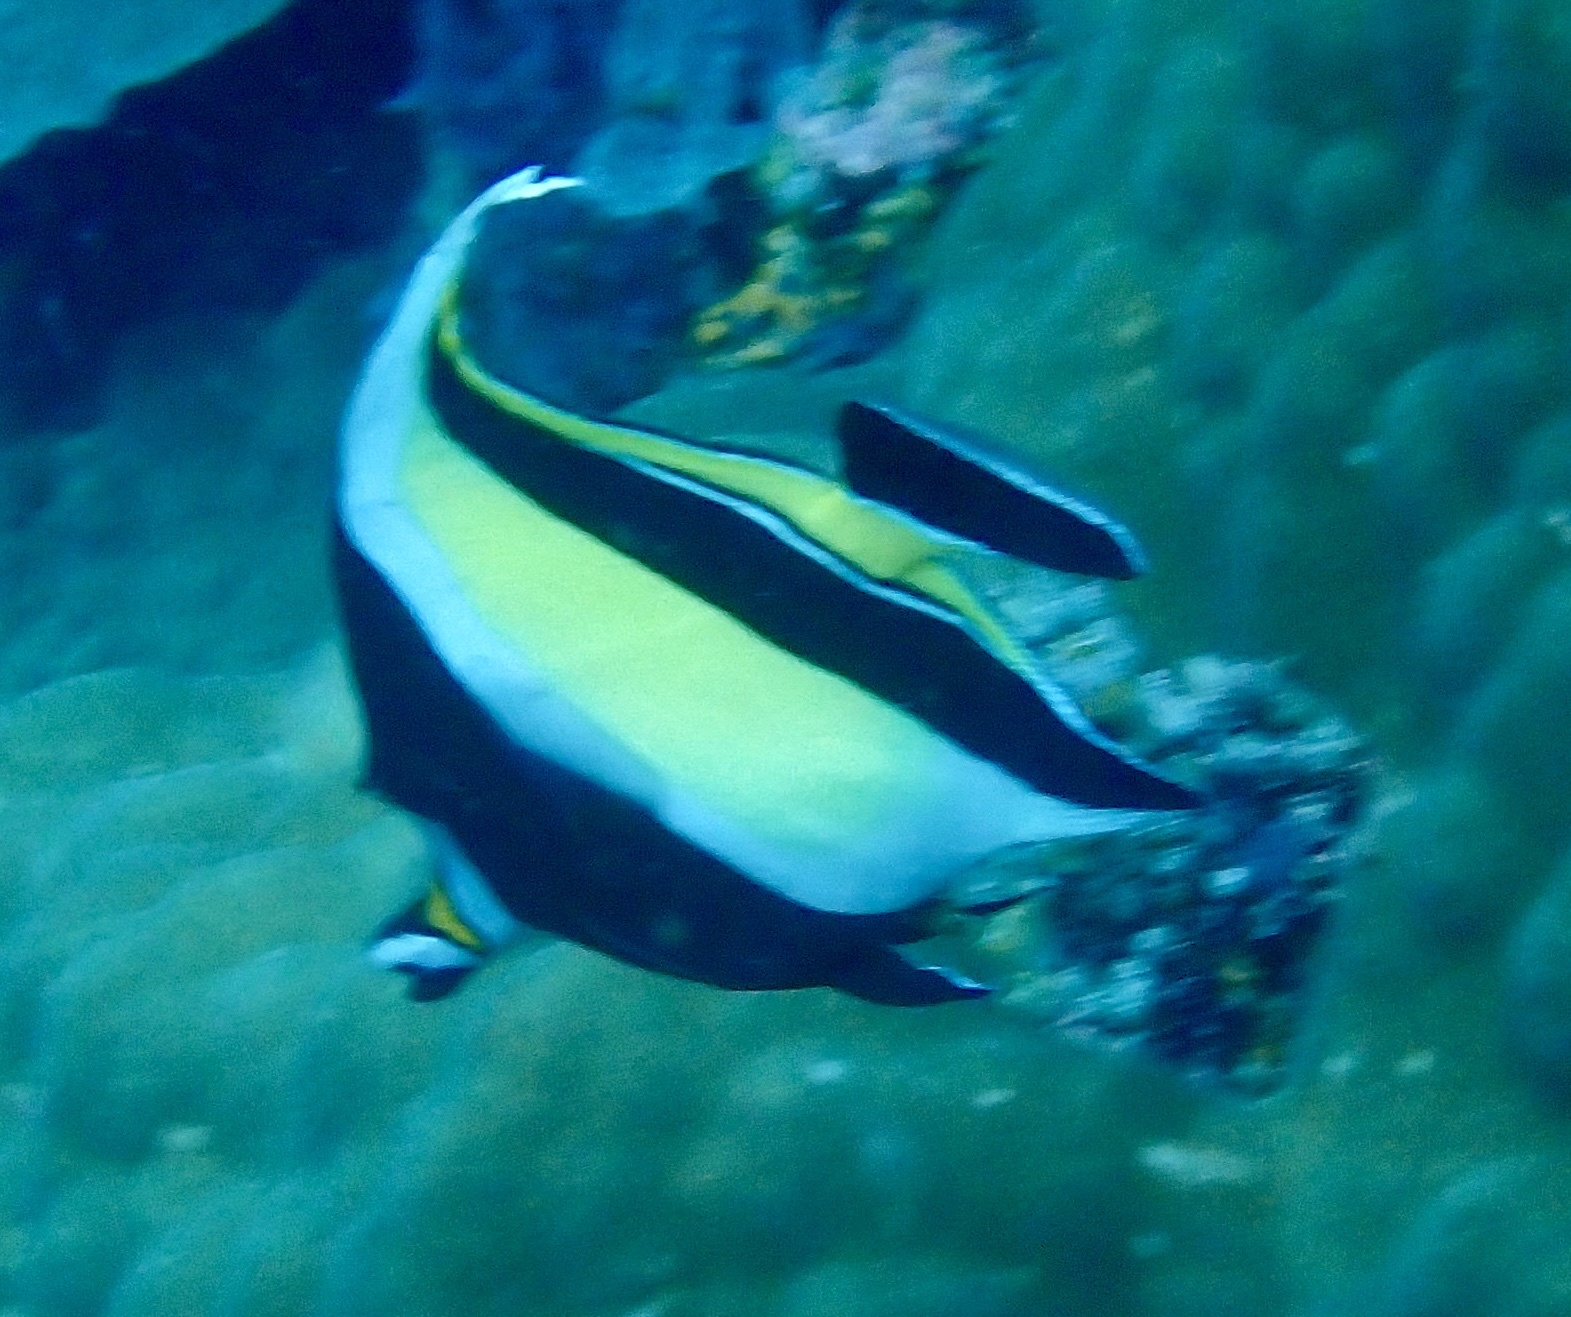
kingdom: Animalia
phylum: Chordata
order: Perciformes
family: Zanclidae
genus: Zanclus
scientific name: Zanclus cornutus
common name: Moorish idol
